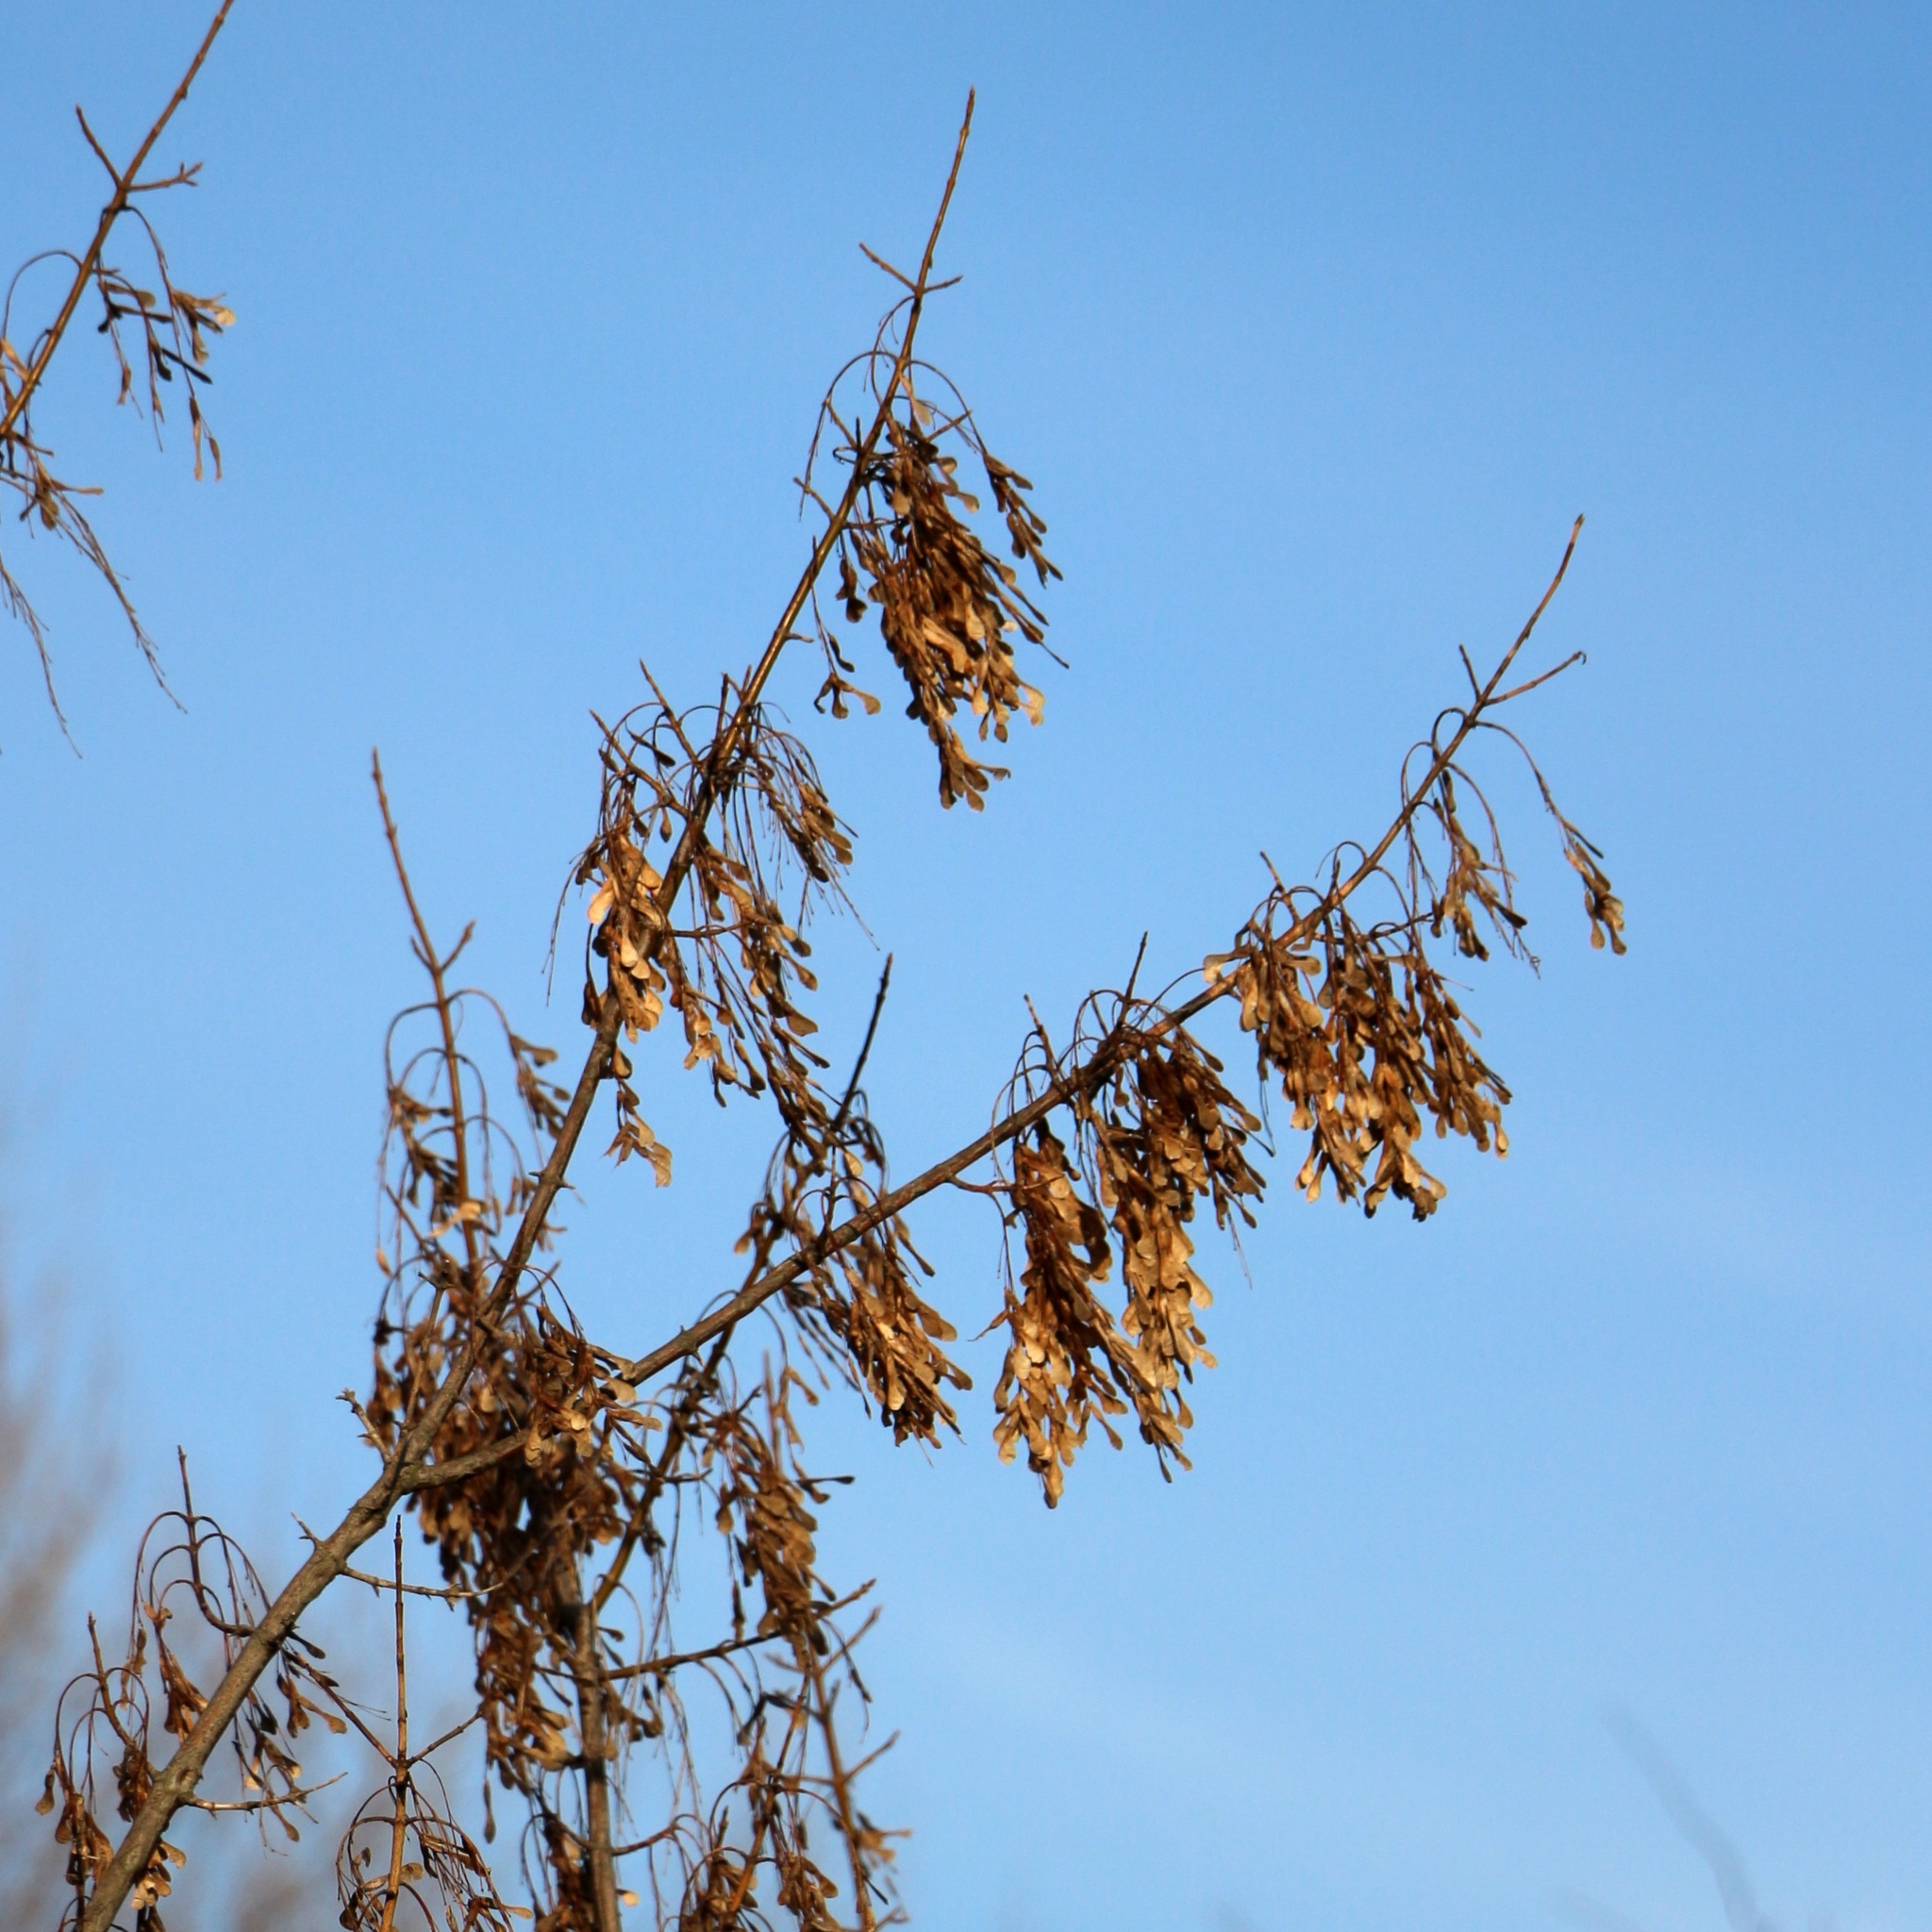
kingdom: Plantae
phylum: Tracheophyta
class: Magnoliopsida
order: Sapindales
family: Sapindaceae
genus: Acer
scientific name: Acer negundo
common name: Ashleaf maple
